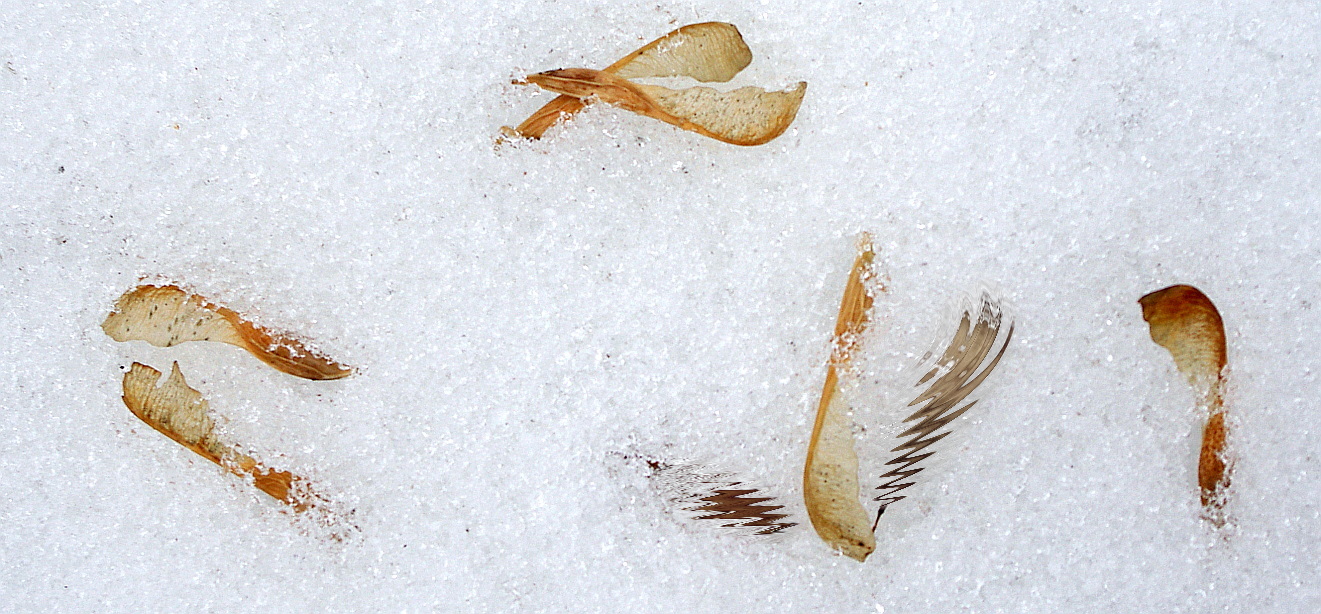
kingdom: Plantae
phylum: Tracheophyta
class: Magnoliopsida
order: Sapindales
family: Sapindaceae
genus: Acer
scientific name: Acer negundo
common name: Ashleaf maple
